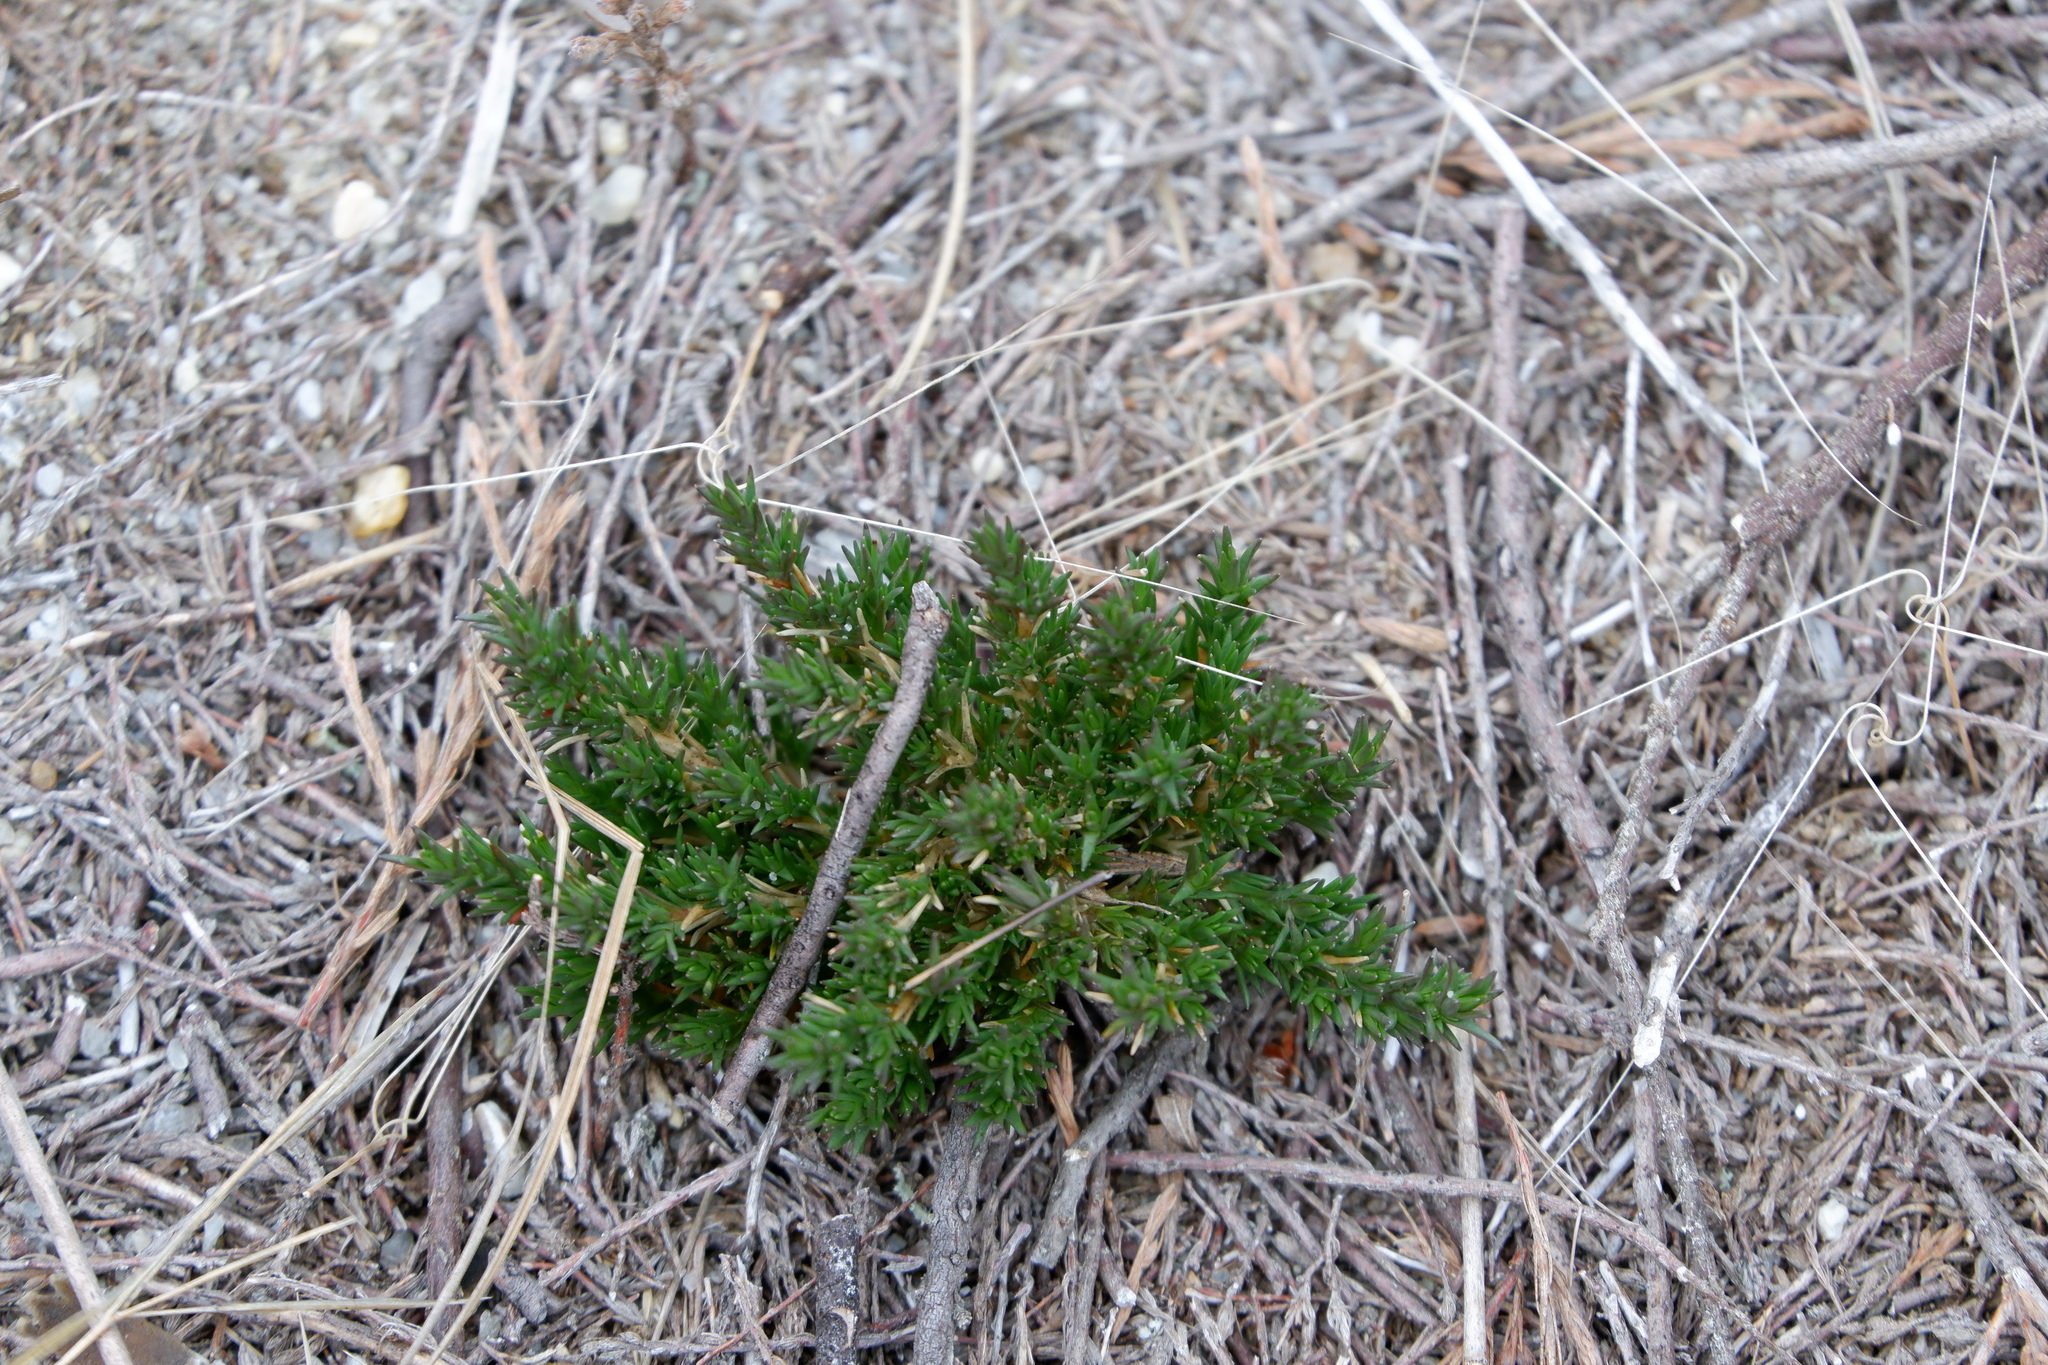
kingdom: Plantae
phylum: Tracheophyta
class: Magnoliopsida
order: Caryophyllales
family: Caryophyllaceae
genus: Geocarpon
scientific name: Geocarpon carolinianum
